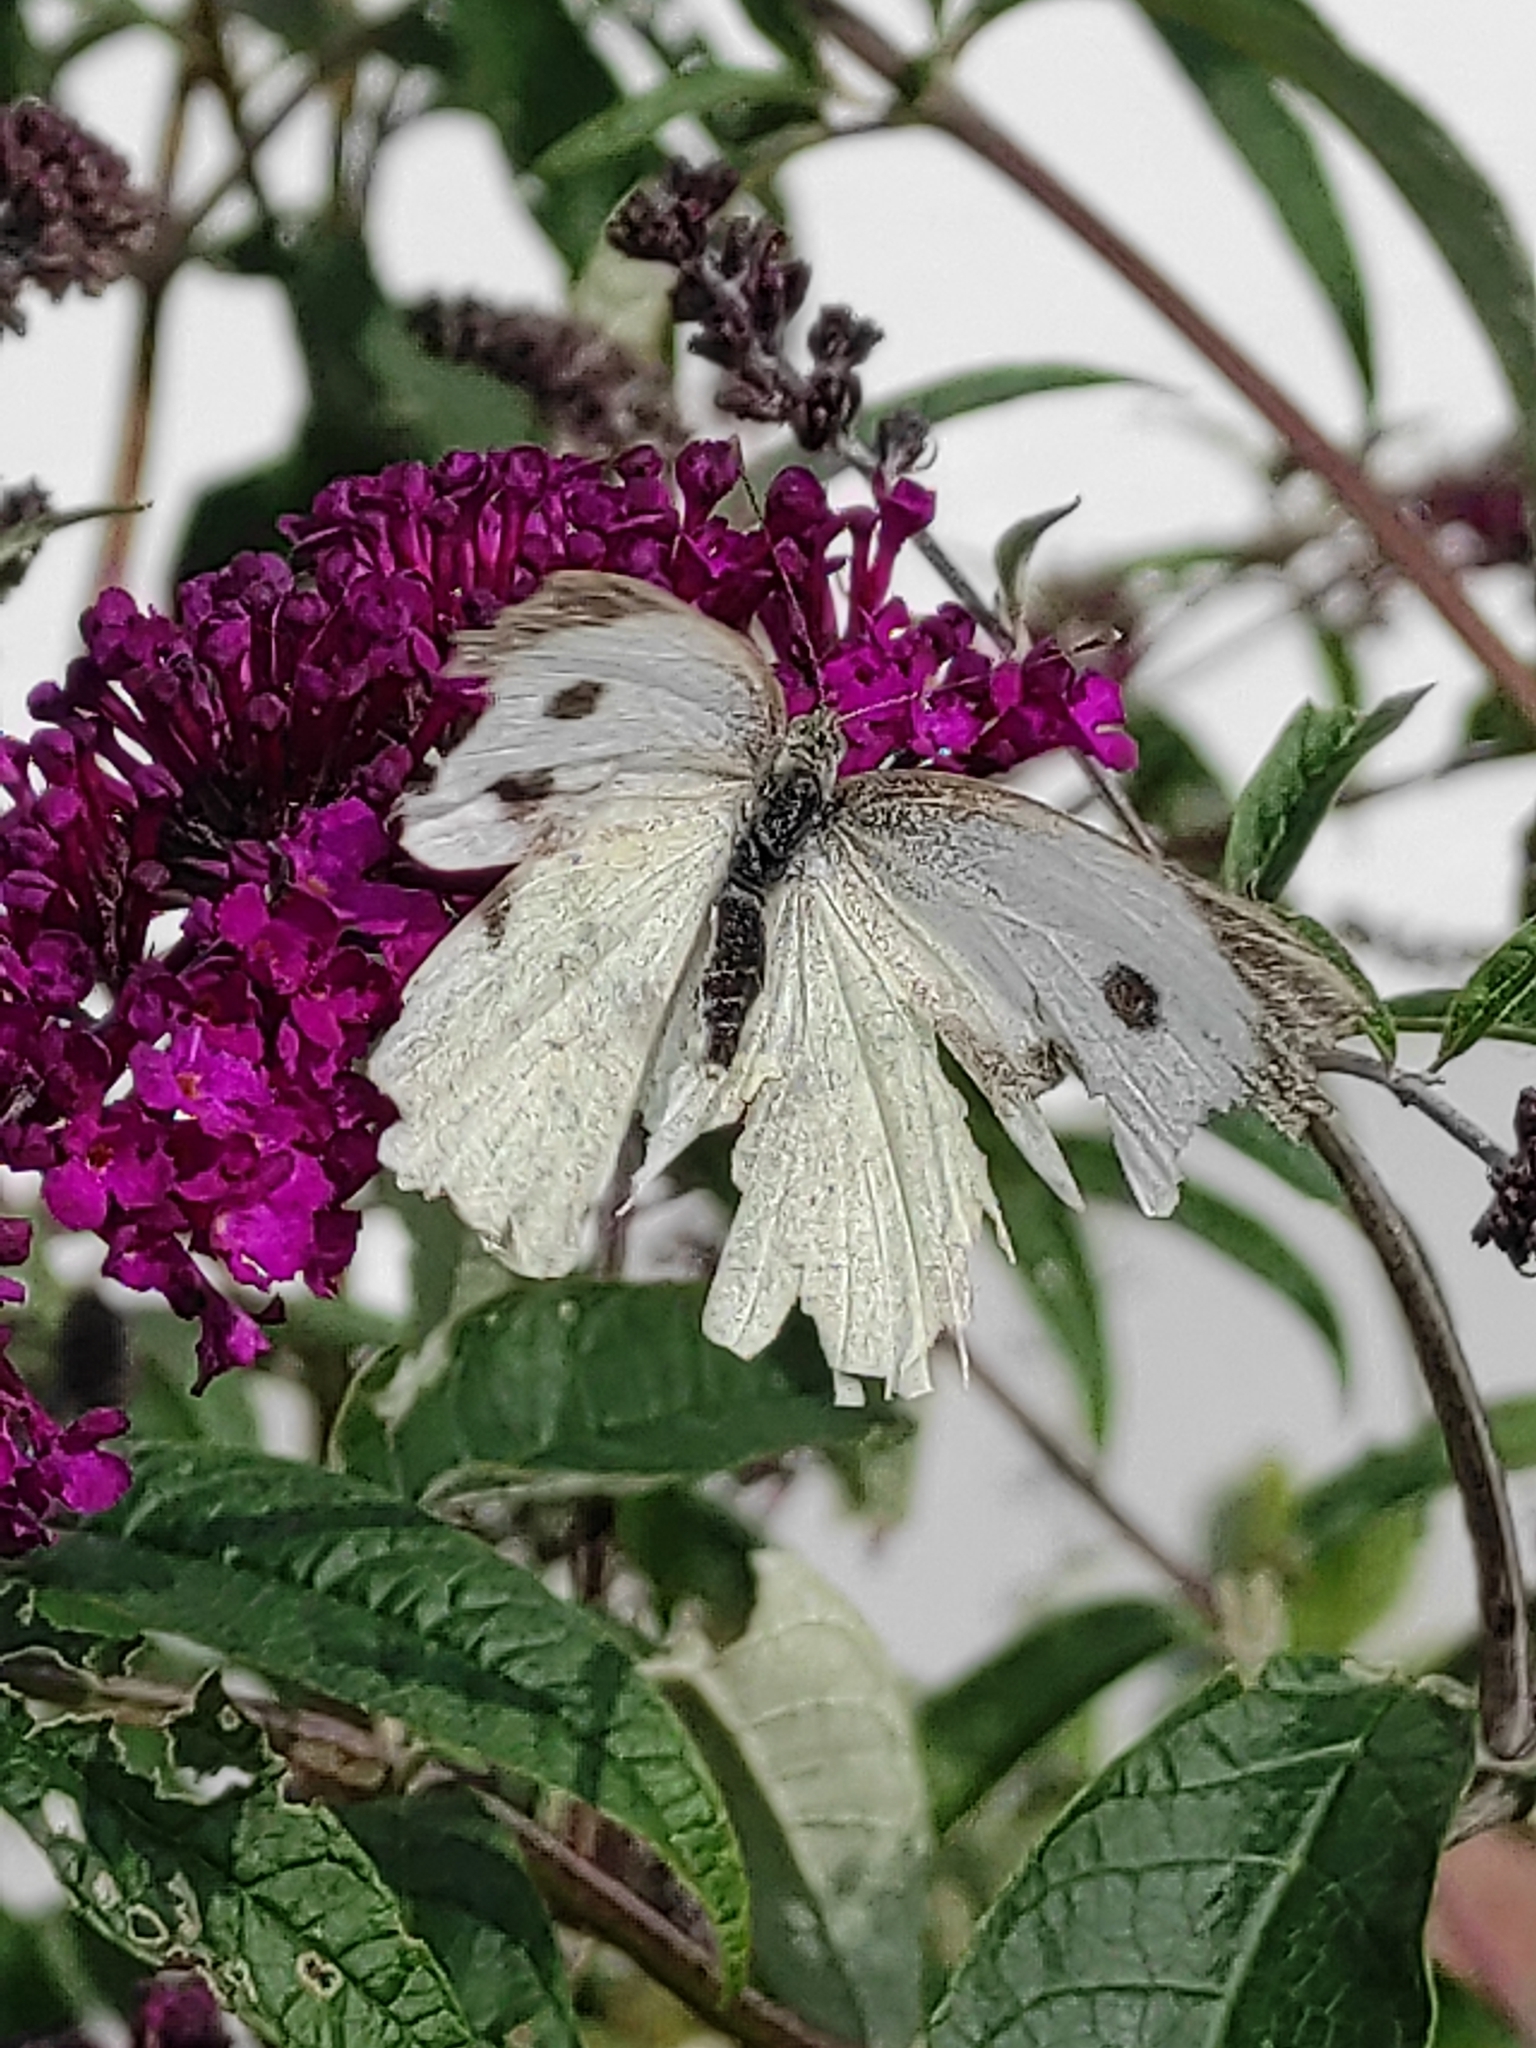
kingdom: Animalia
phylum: Arthropoda
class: Insecta
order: Lepidoptera
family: Pieridae
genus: Pieris
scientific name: Pieris brassicae
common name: Large white
